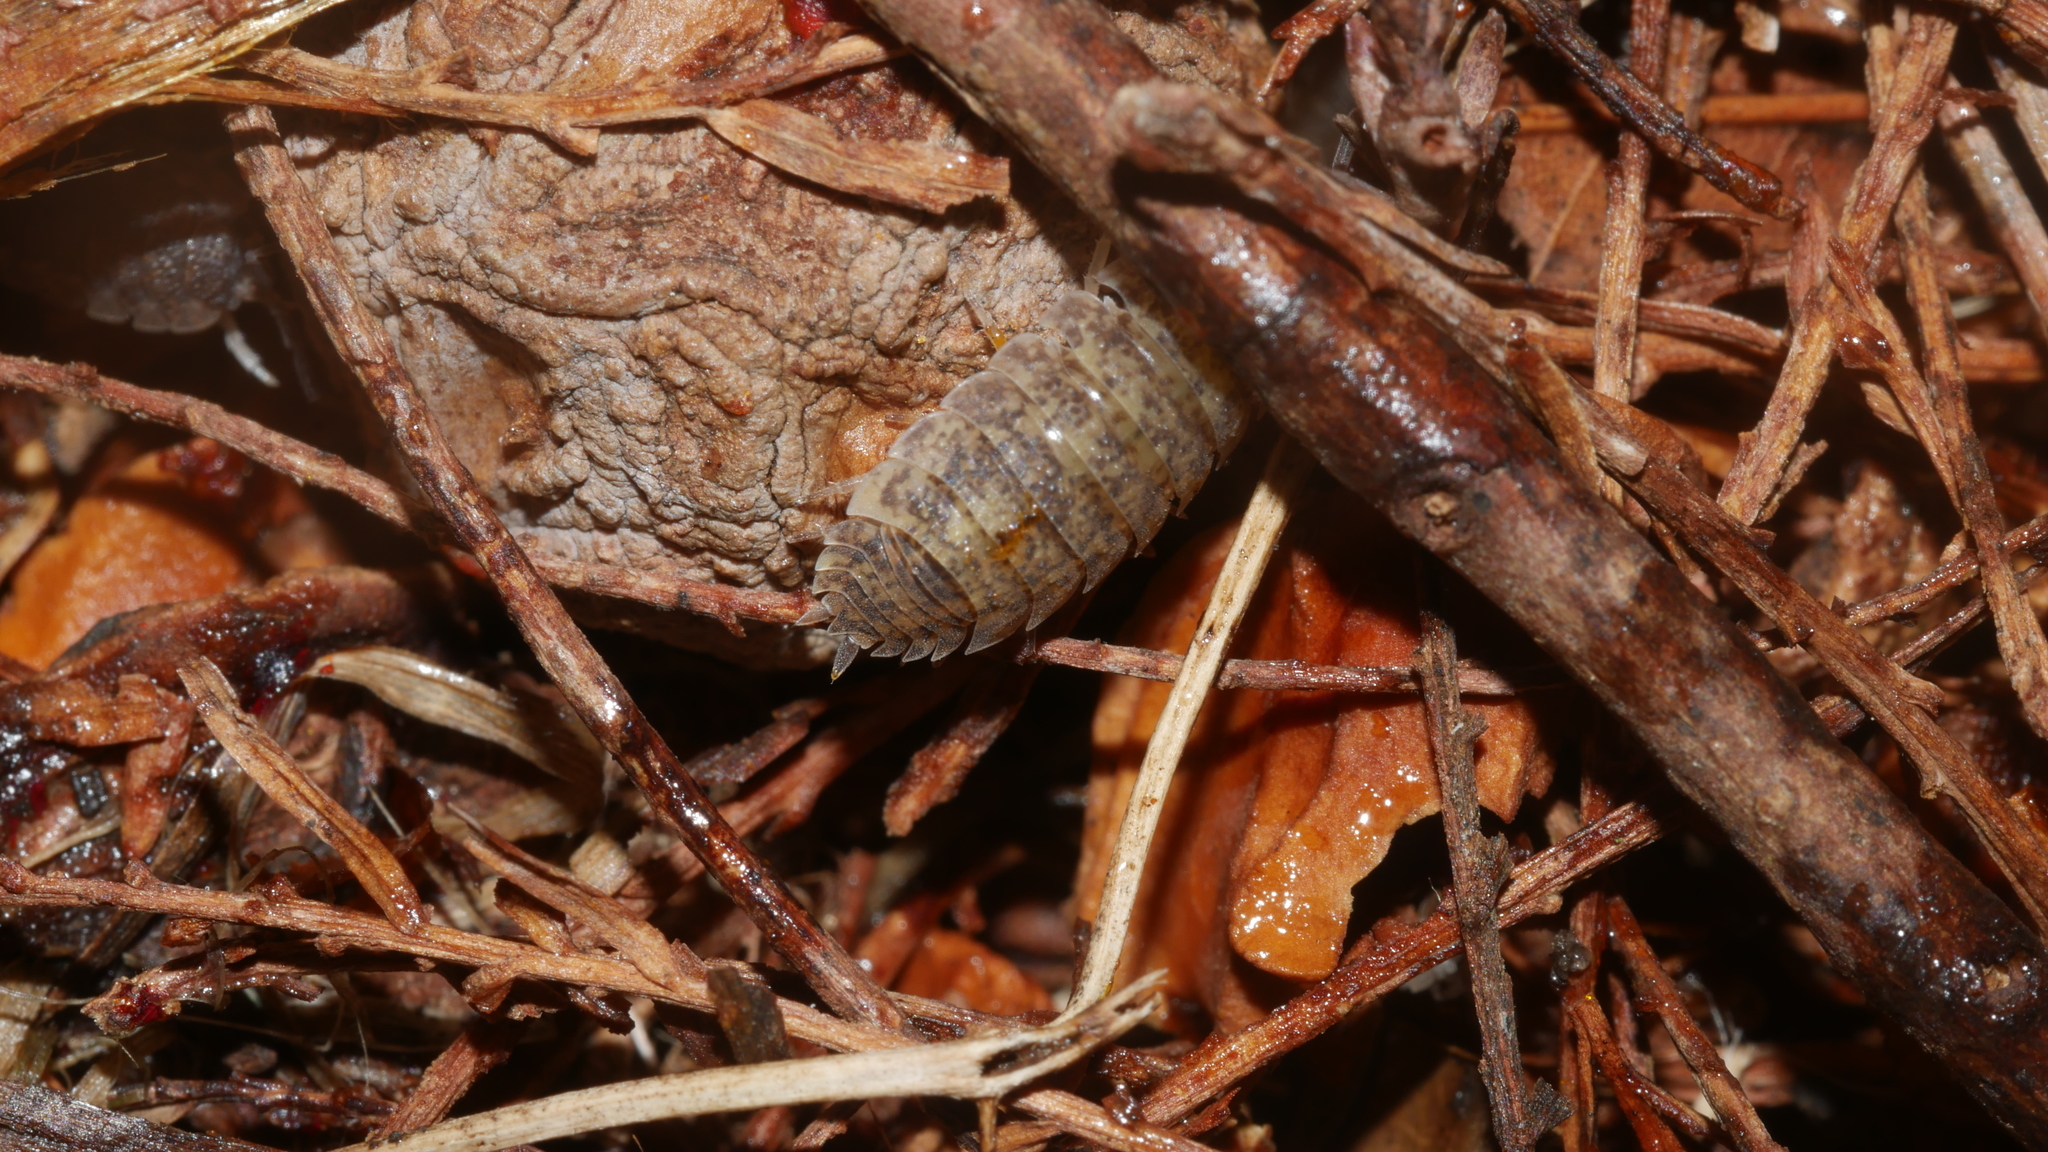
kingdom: Animalia
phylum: Arthropoda
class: Malacostraca
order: Isopoda
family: Porcellionidae
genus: Porcellio
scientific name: Porcellio scaber
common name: Common rough woodlouse
